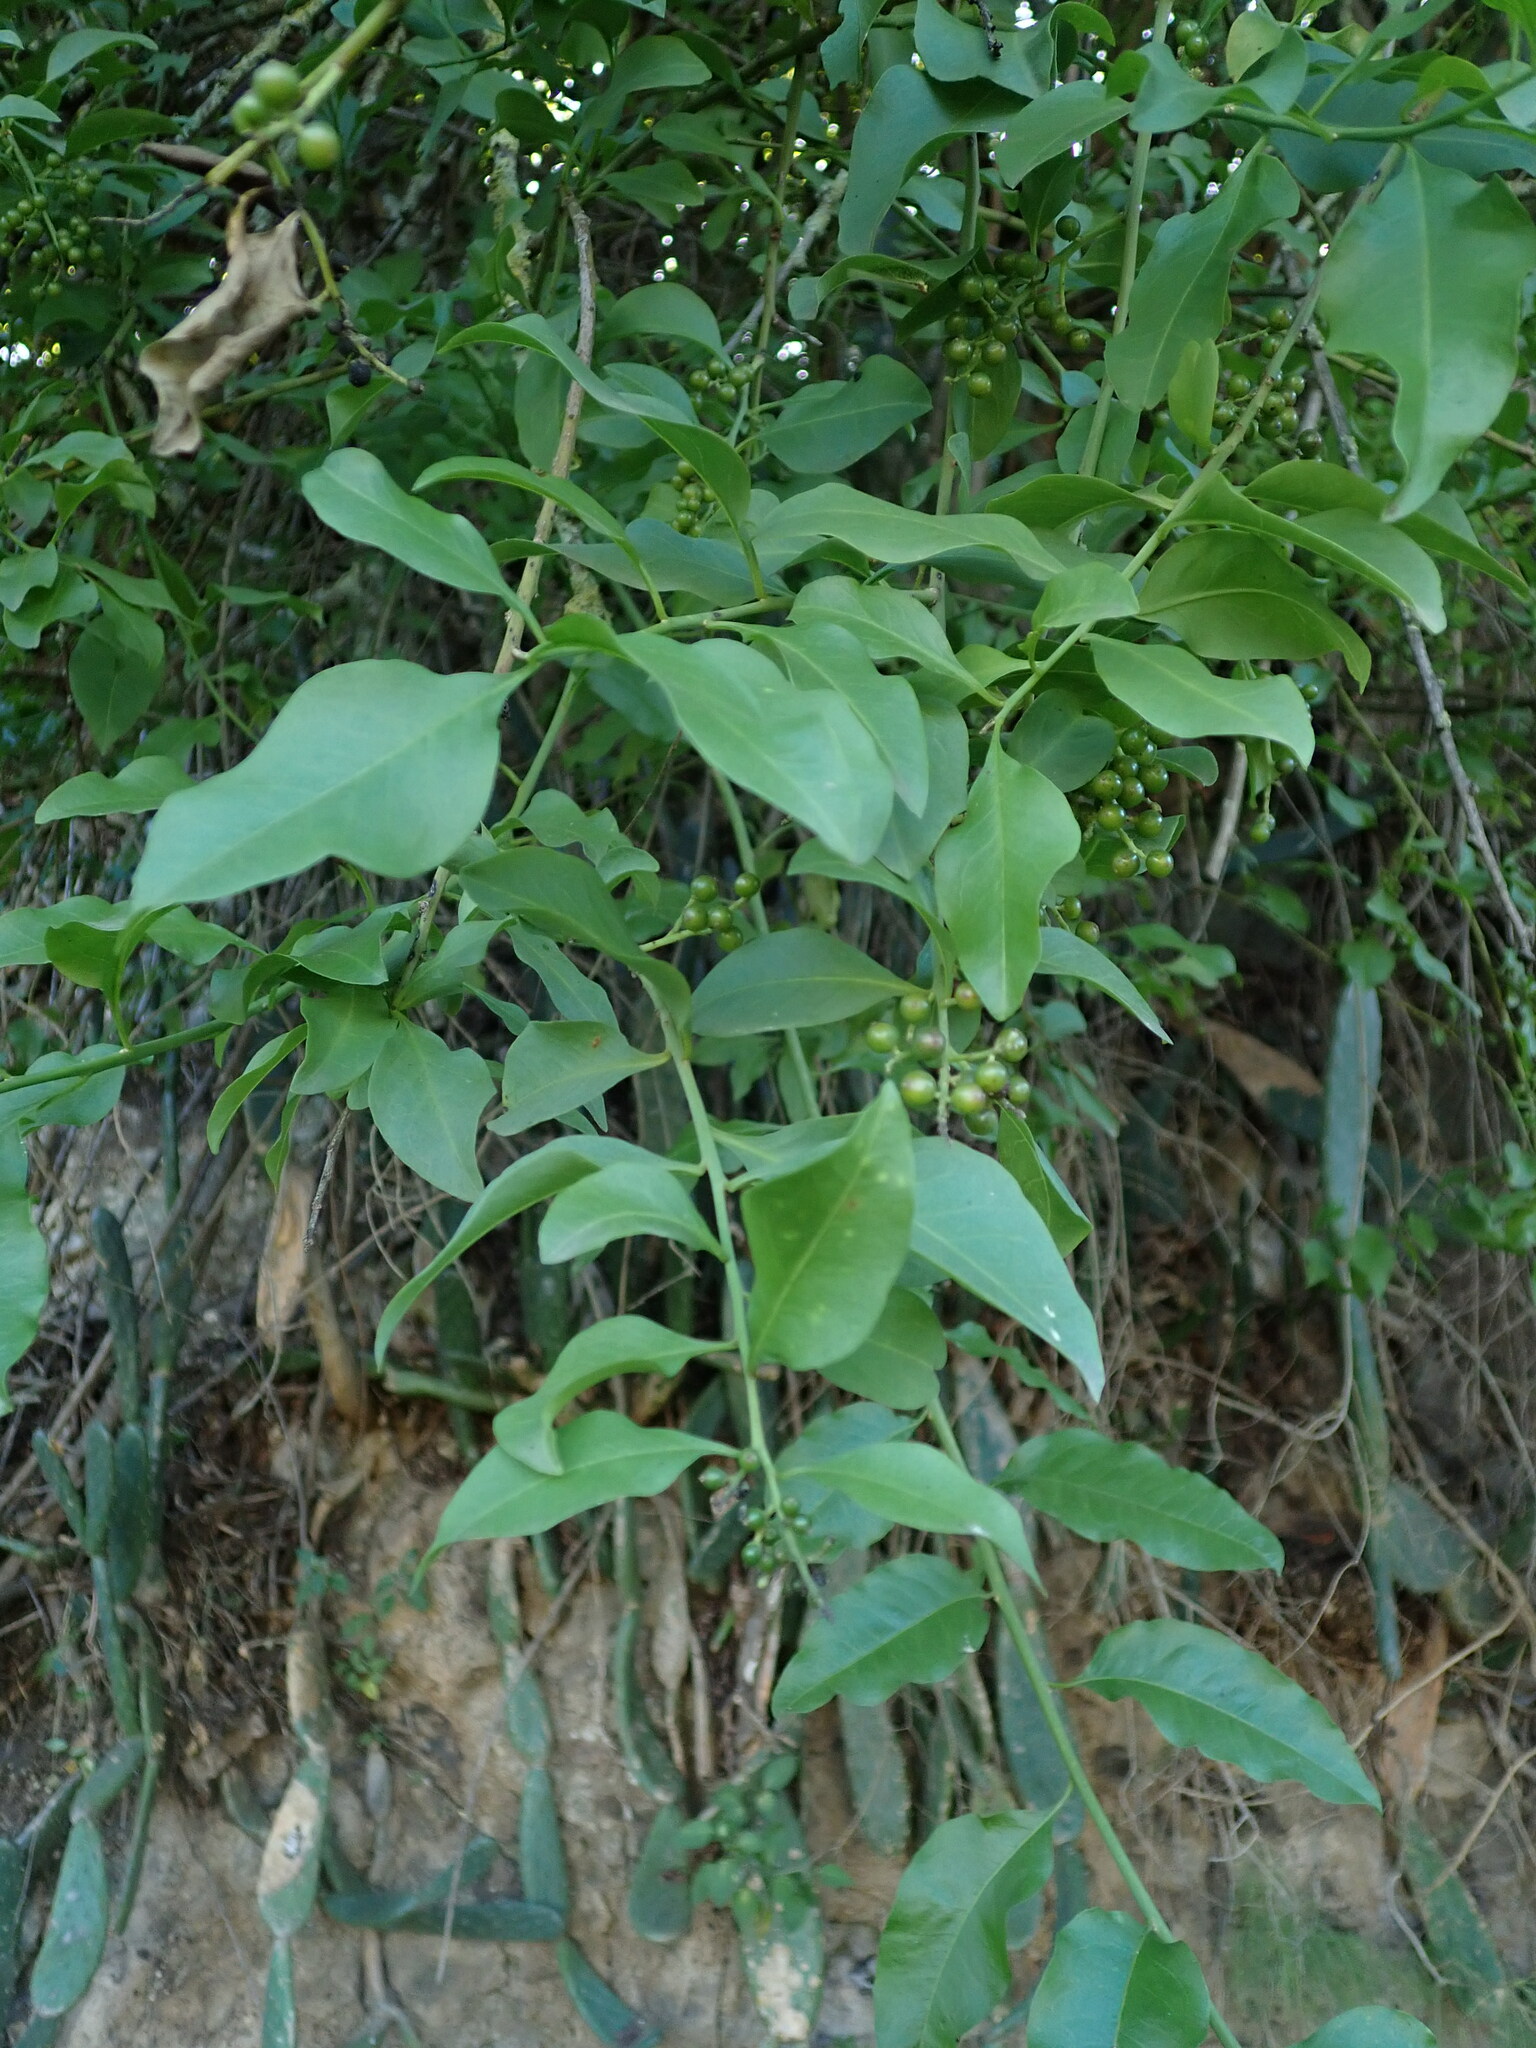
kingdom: Plantae
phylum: Tracheophyta
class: Magnoliopsida
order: Caryophyllales
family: Amaranthaceae
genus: Bosea
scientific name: Bosea yervamora
